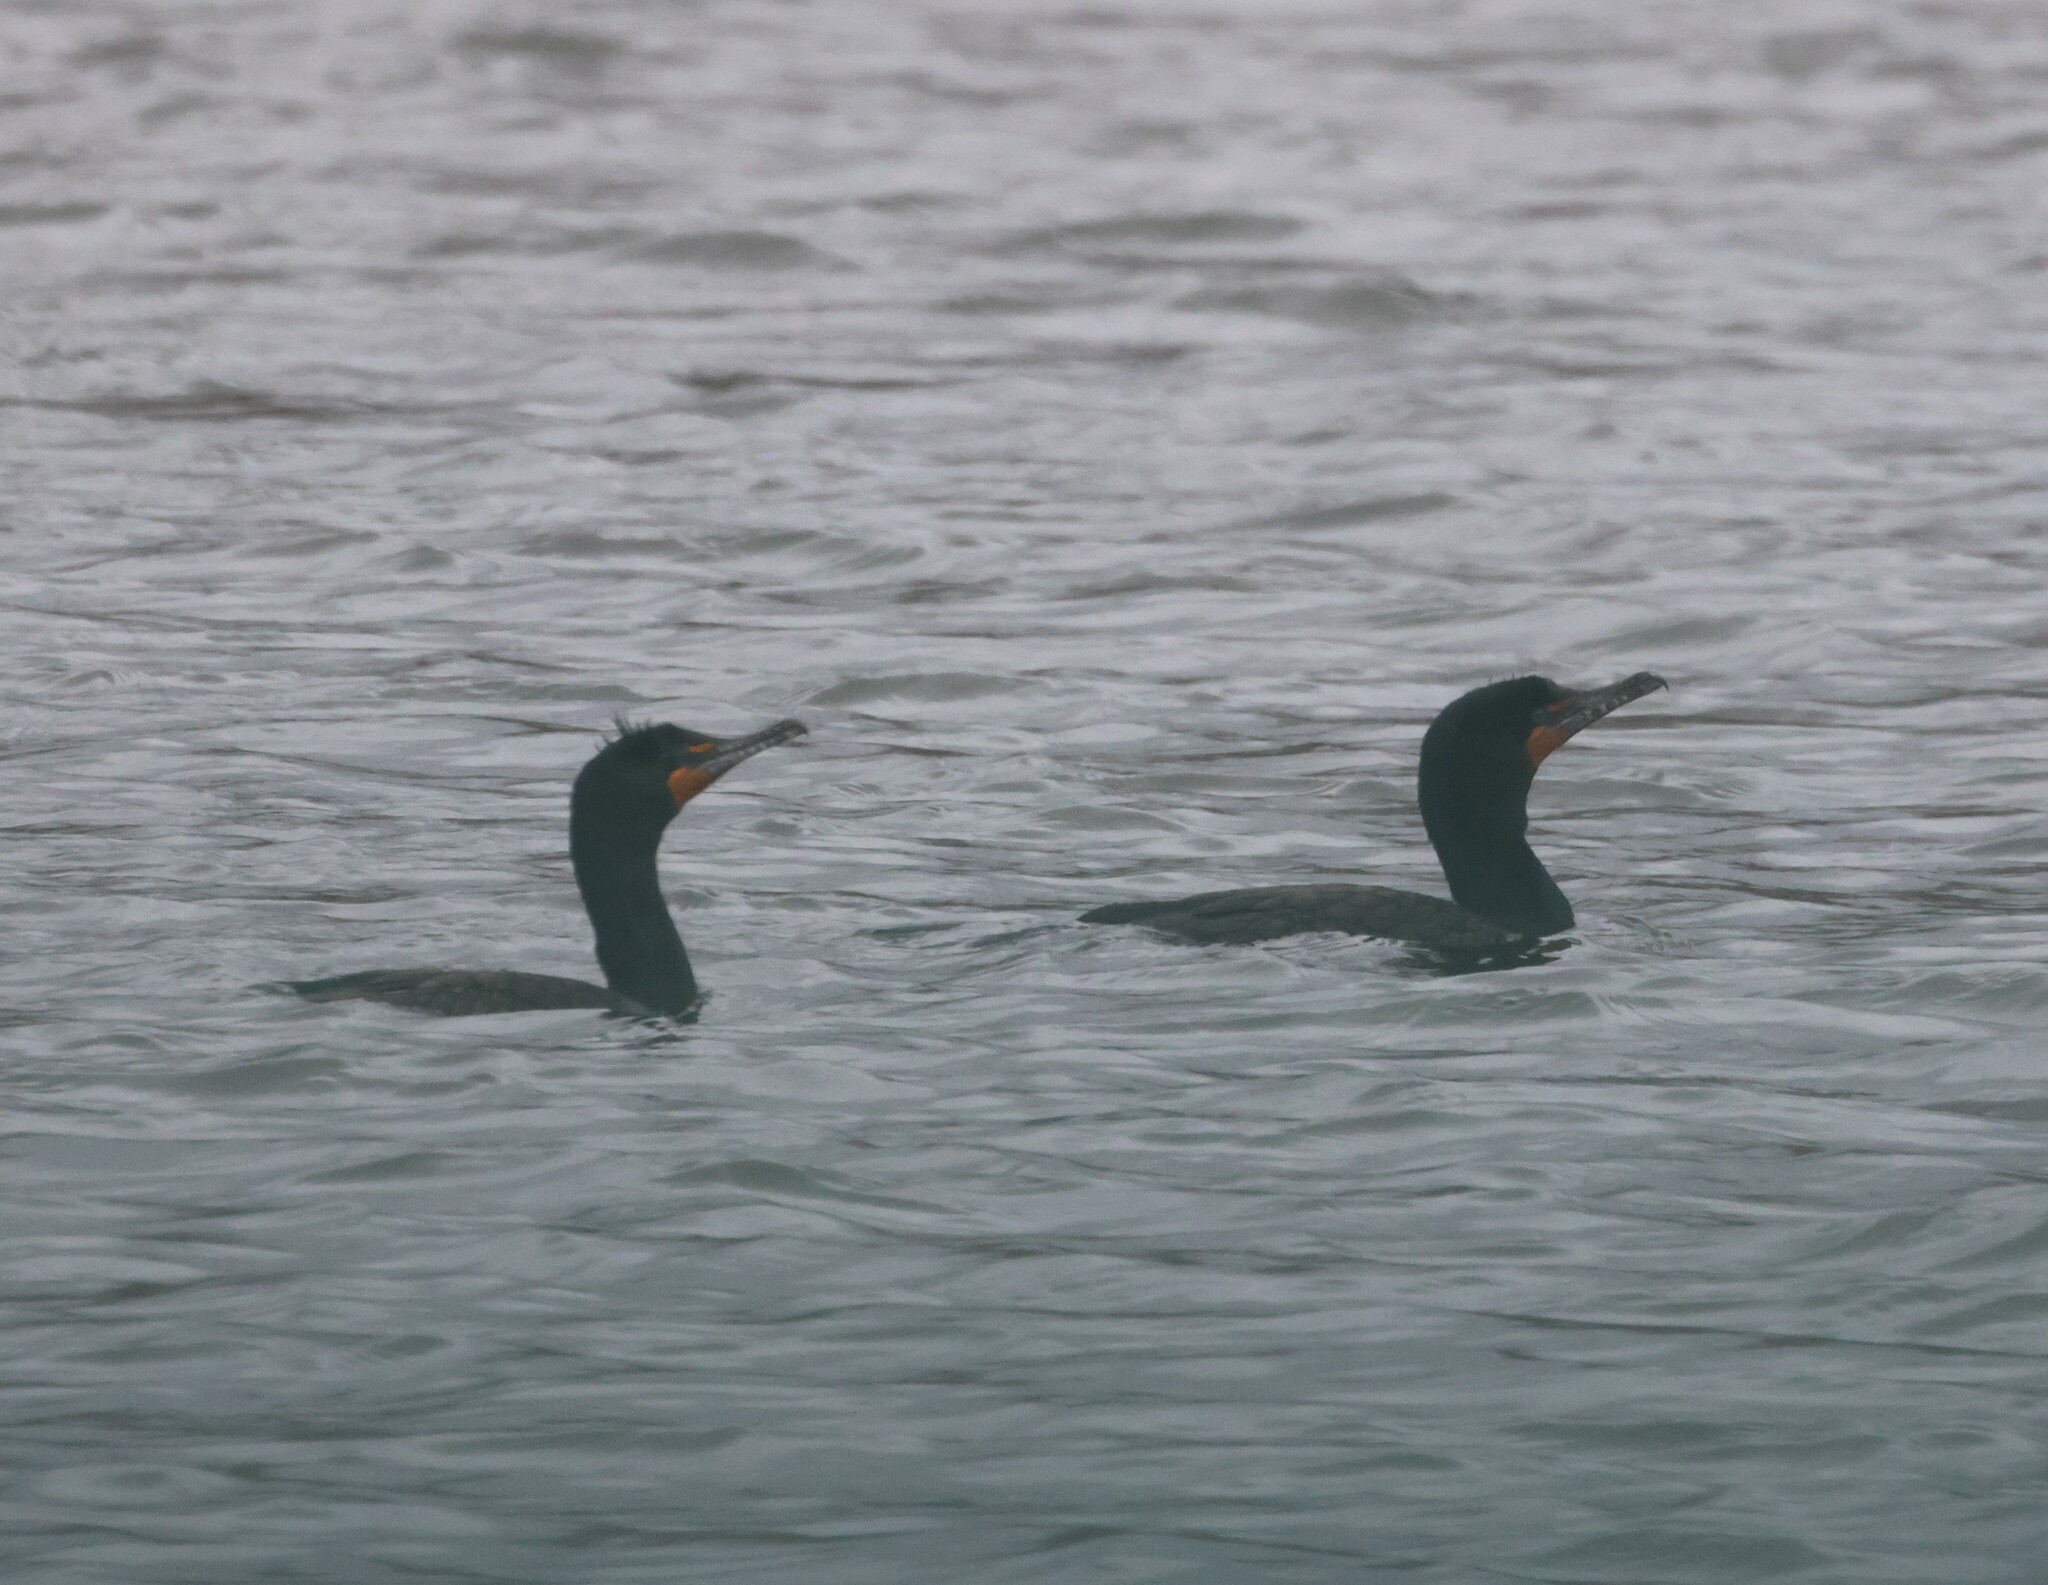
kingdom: Animalia
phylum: Chordata
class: Aves
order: Suliformes
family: Phalacrocoracidae
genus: Phalacrocorax
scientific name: Phalacrocorax auritus
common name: Double-crested cormorant
